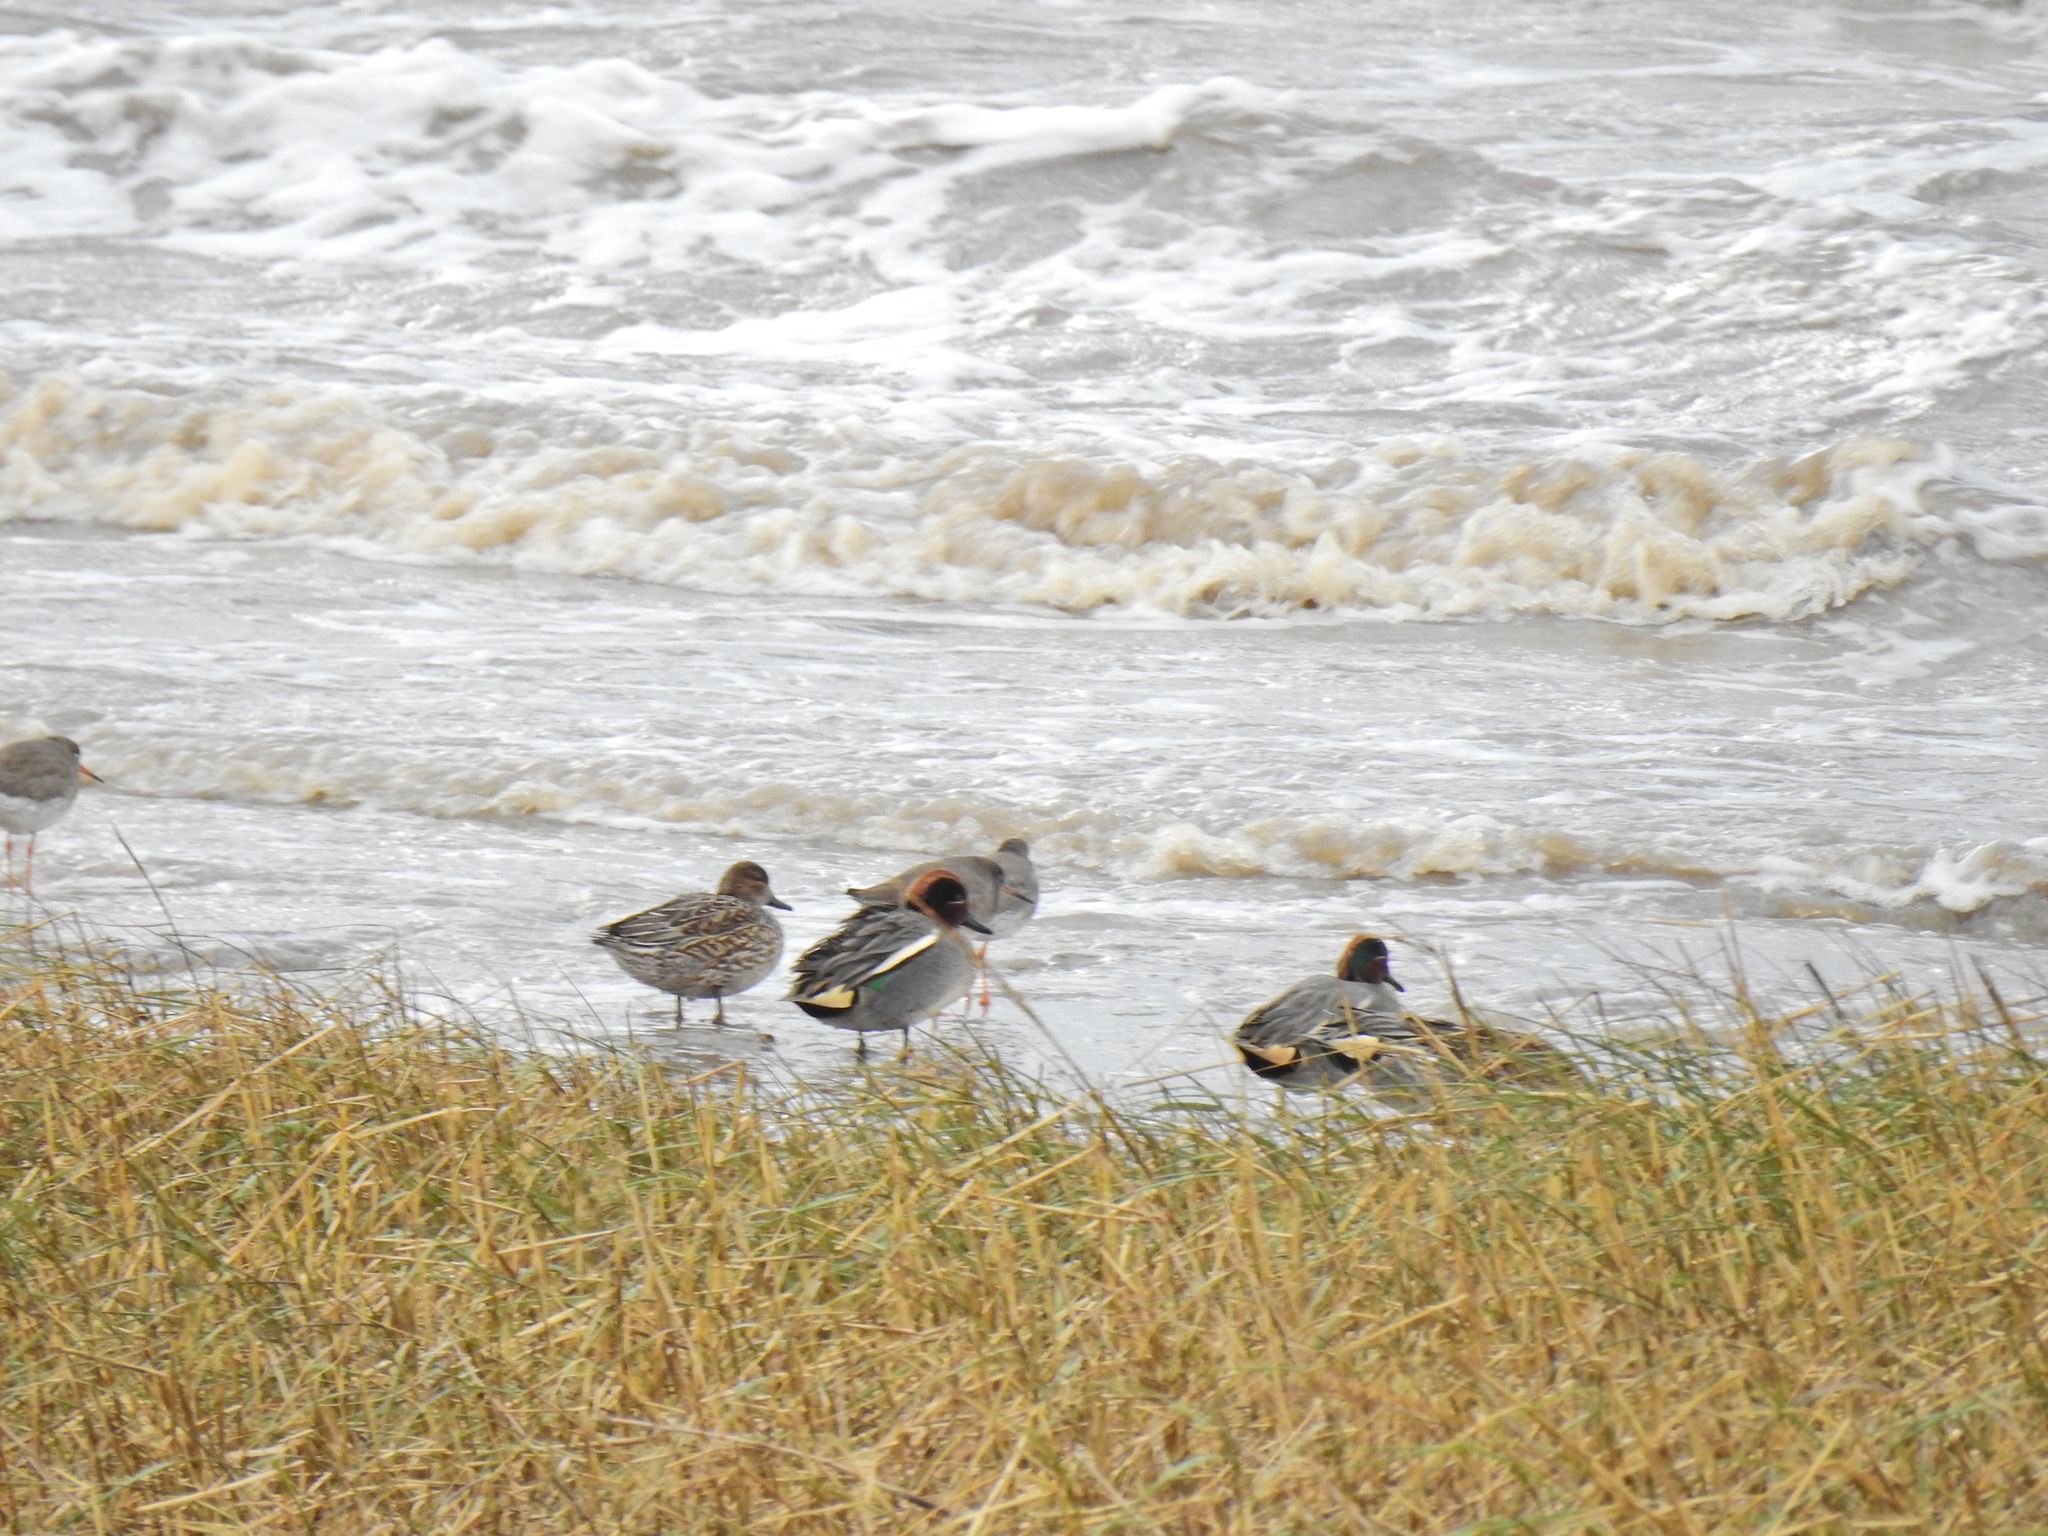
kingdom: Animalia
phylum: Chordata
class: Aves
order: Anseriformes
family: Anatidae
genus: Anas
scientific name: Anas crecca
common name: Eurasian teal
